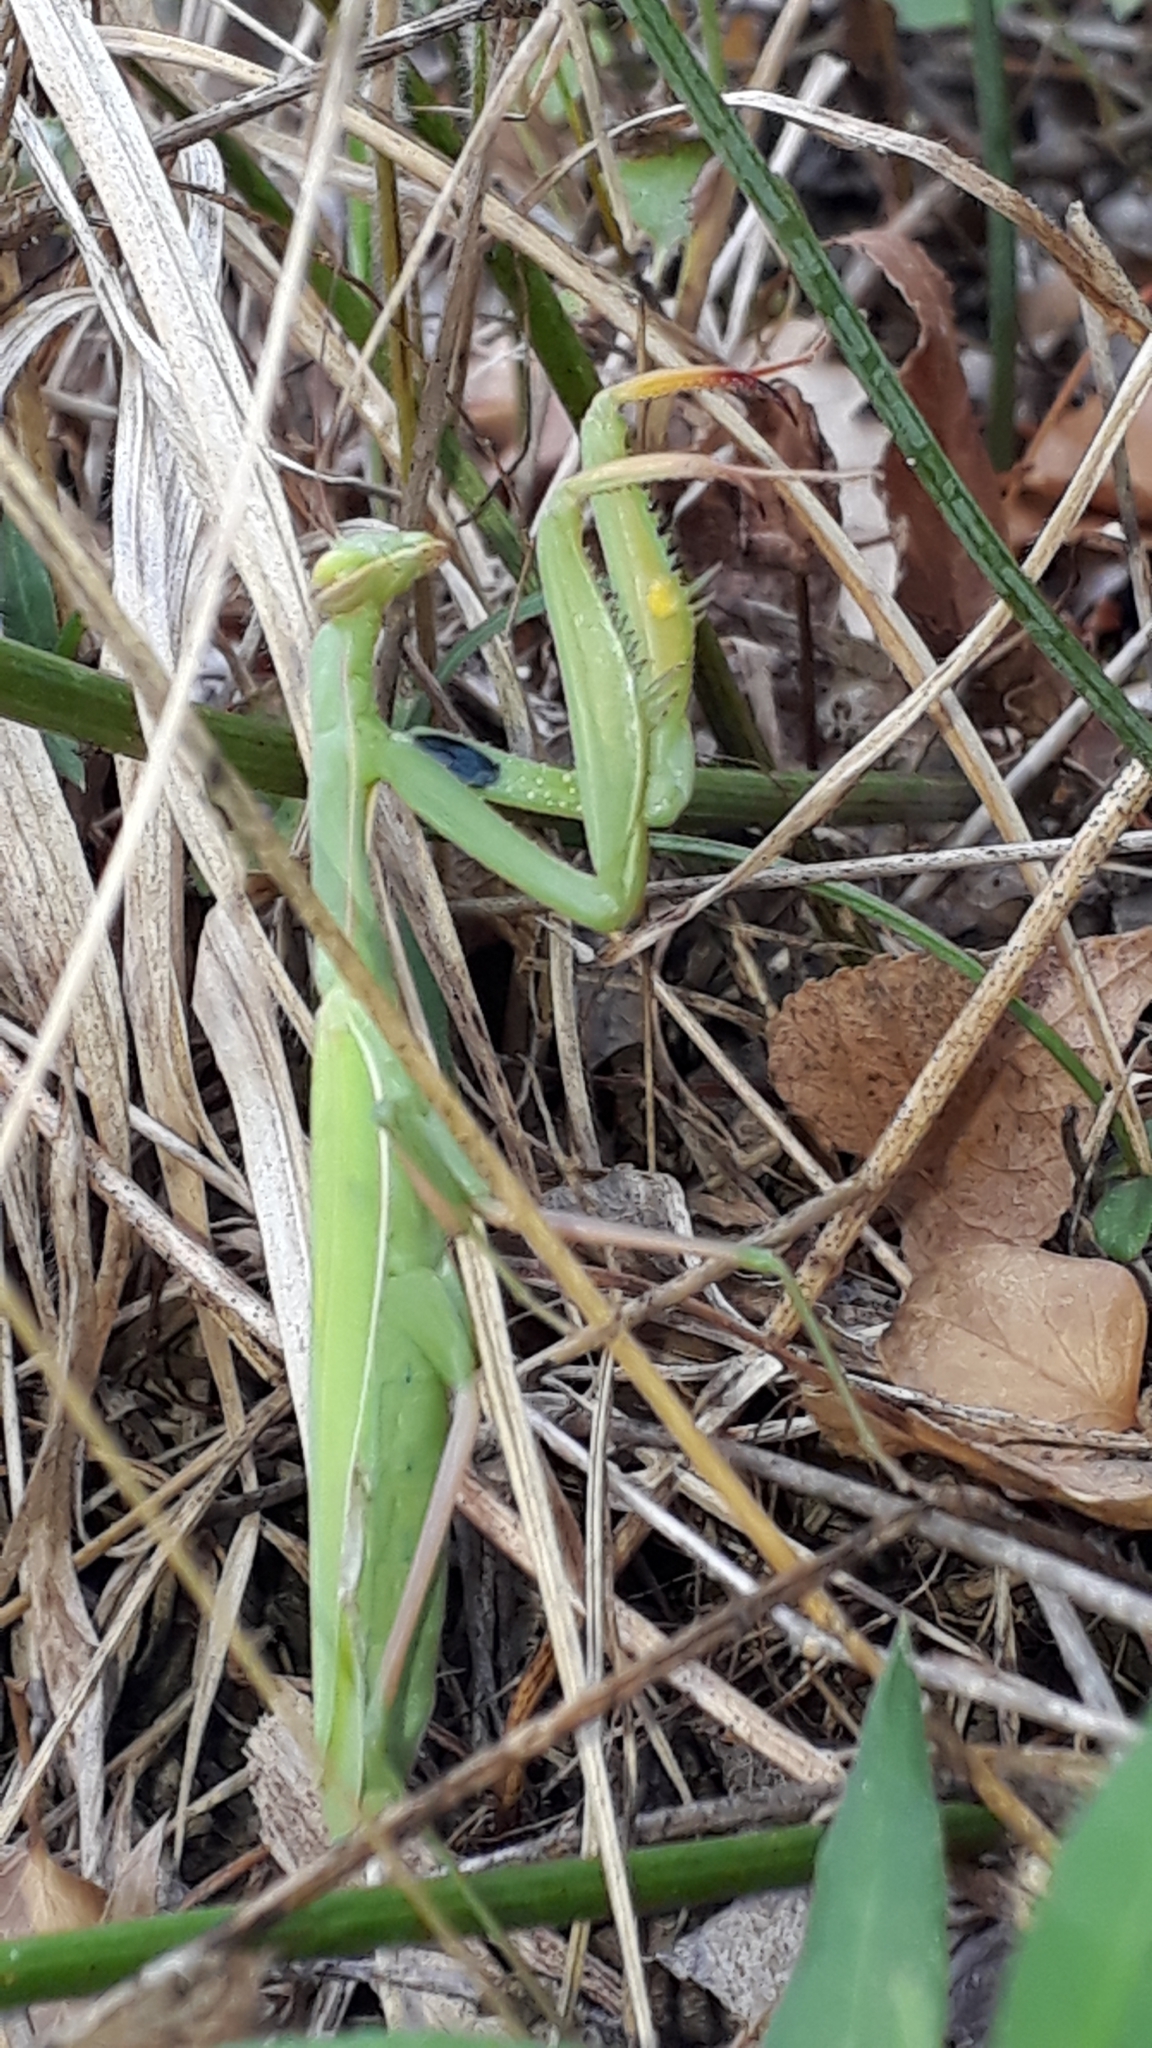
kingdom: Animalia
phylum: Arthropoda
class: Insecta
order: Mantodea
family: Mantidae
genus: Mantis
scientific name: Mantis religiosa
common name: Praying mantis
